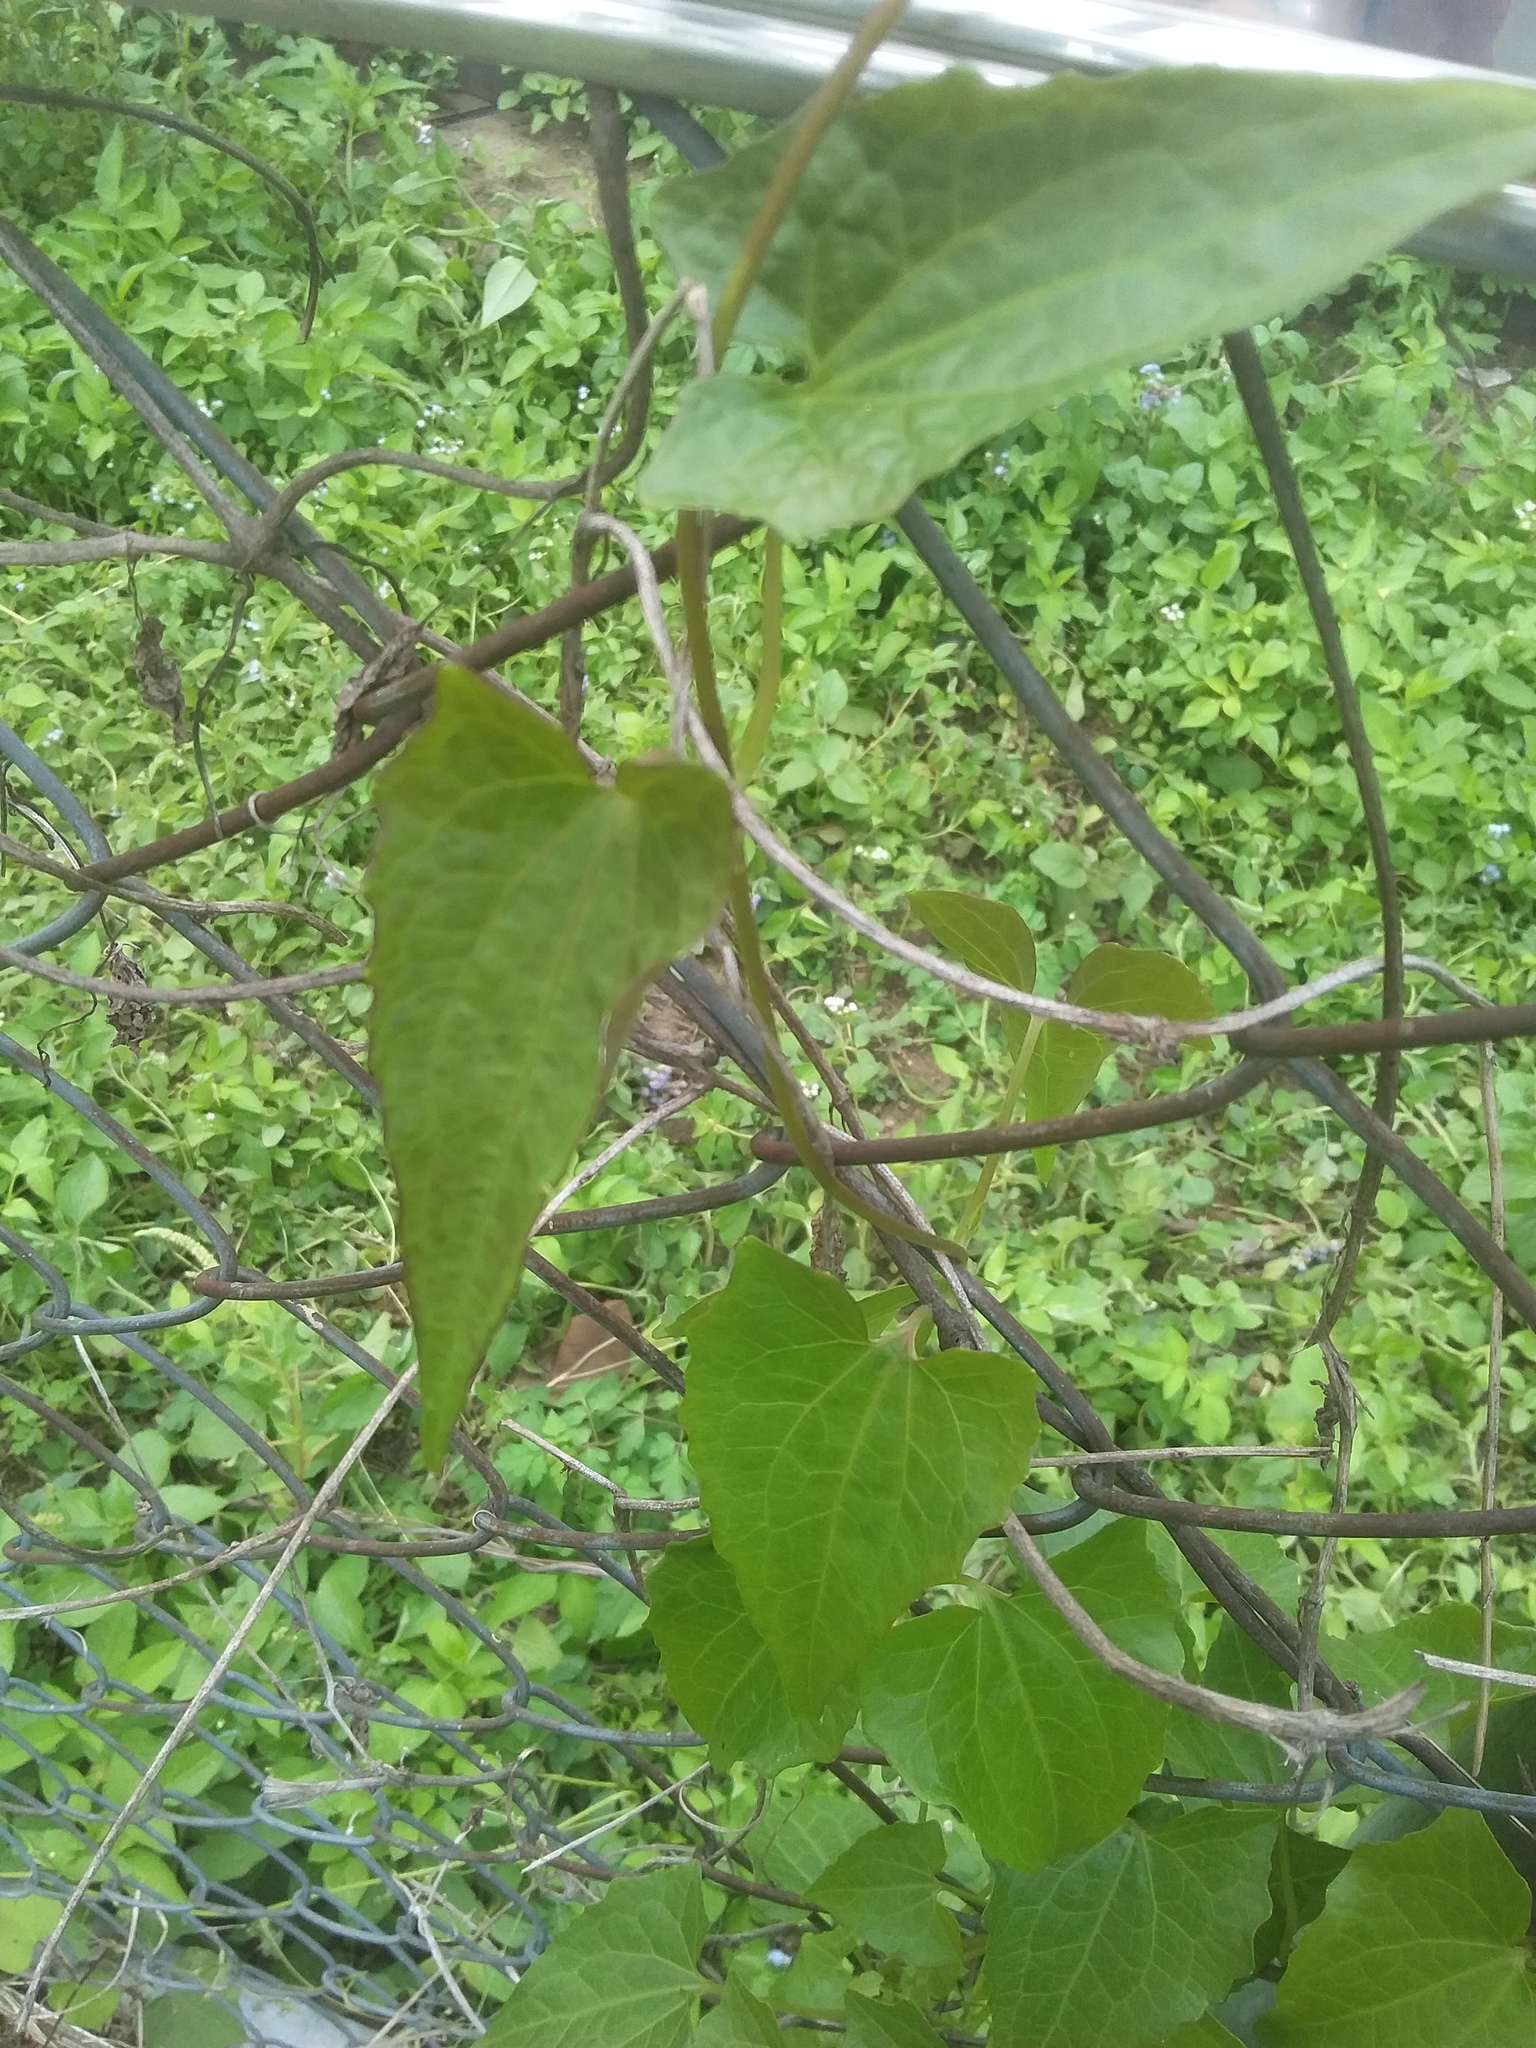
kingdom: Plantae
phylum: Tracheophyta
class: Magnoliopsida
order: Asterales
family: Asteraceae
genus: Mikania
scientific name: Mikania micrantha
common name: Mile-a-minute
